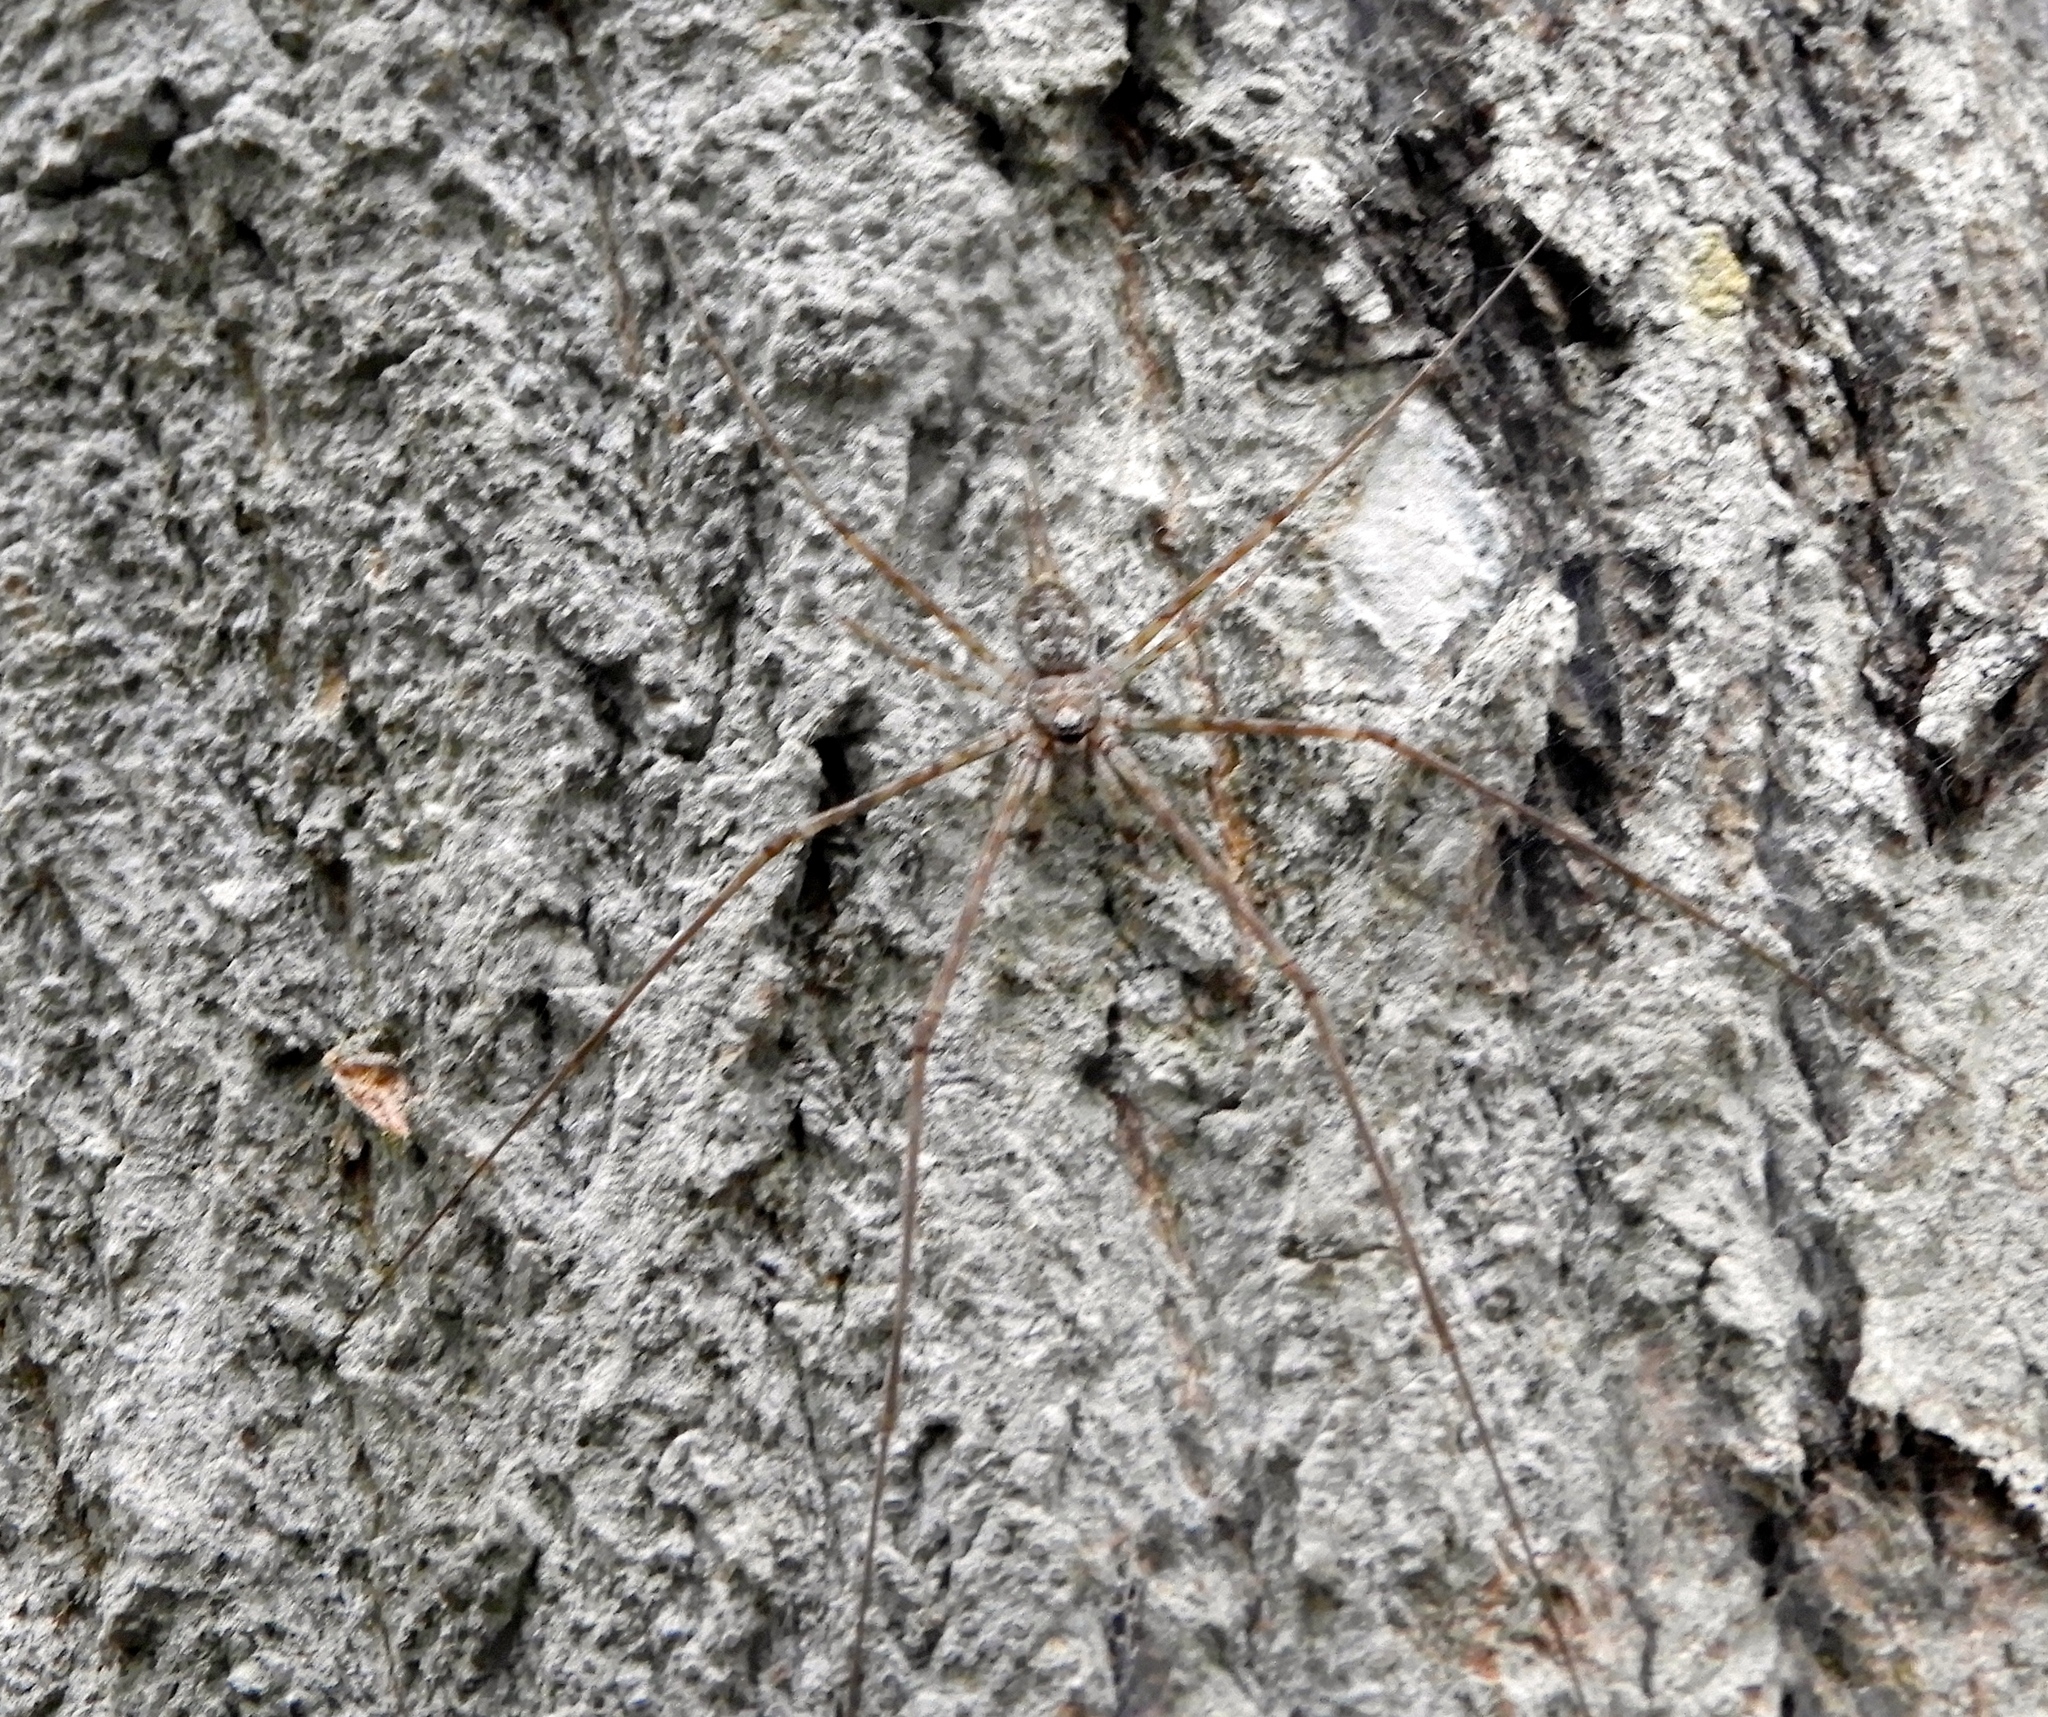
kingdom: Animalia
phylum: Arthropoda
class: Arachnida
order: Araneae
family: Hersiliidae
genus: Neotama
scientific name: Neotama mexicana
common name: Tree trunk spiders
